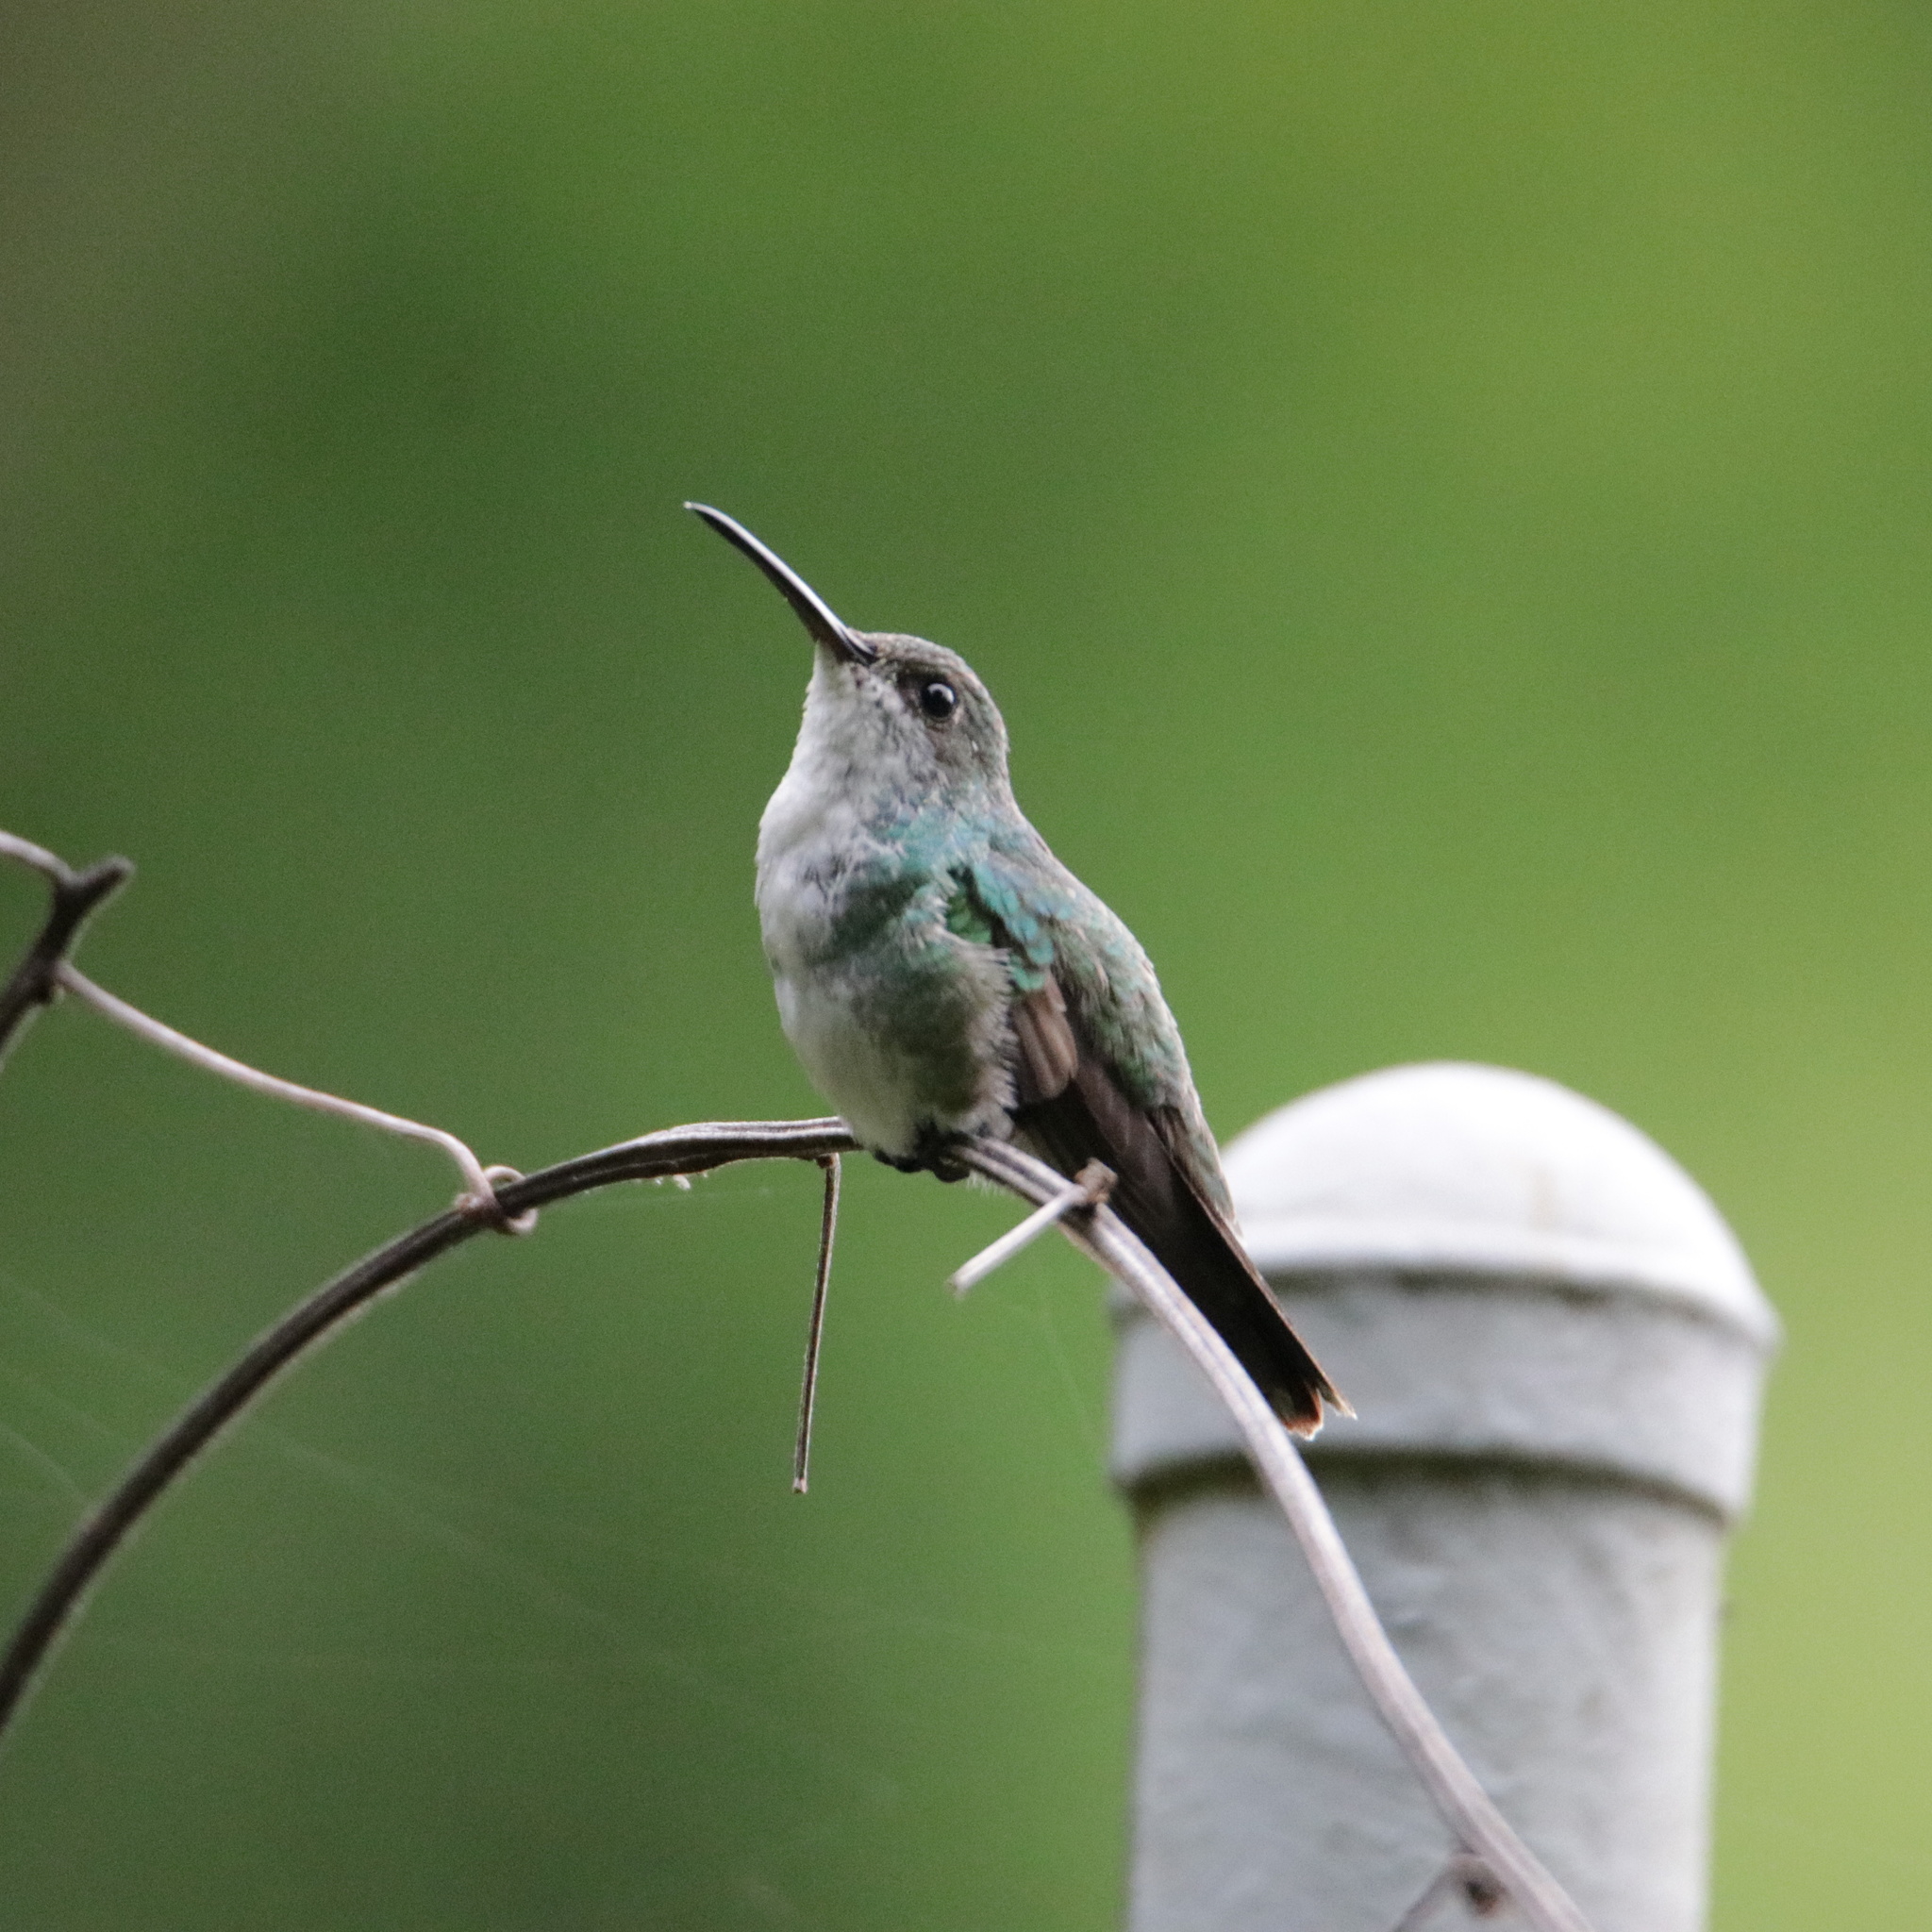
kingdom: Animalia
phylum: Chordata
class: Aves
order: Apodiformes
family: Trochilidae
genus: Chrysuronia
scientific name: Chrysuronia coeruleogularis
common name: Sapphire-throated hummingbird
